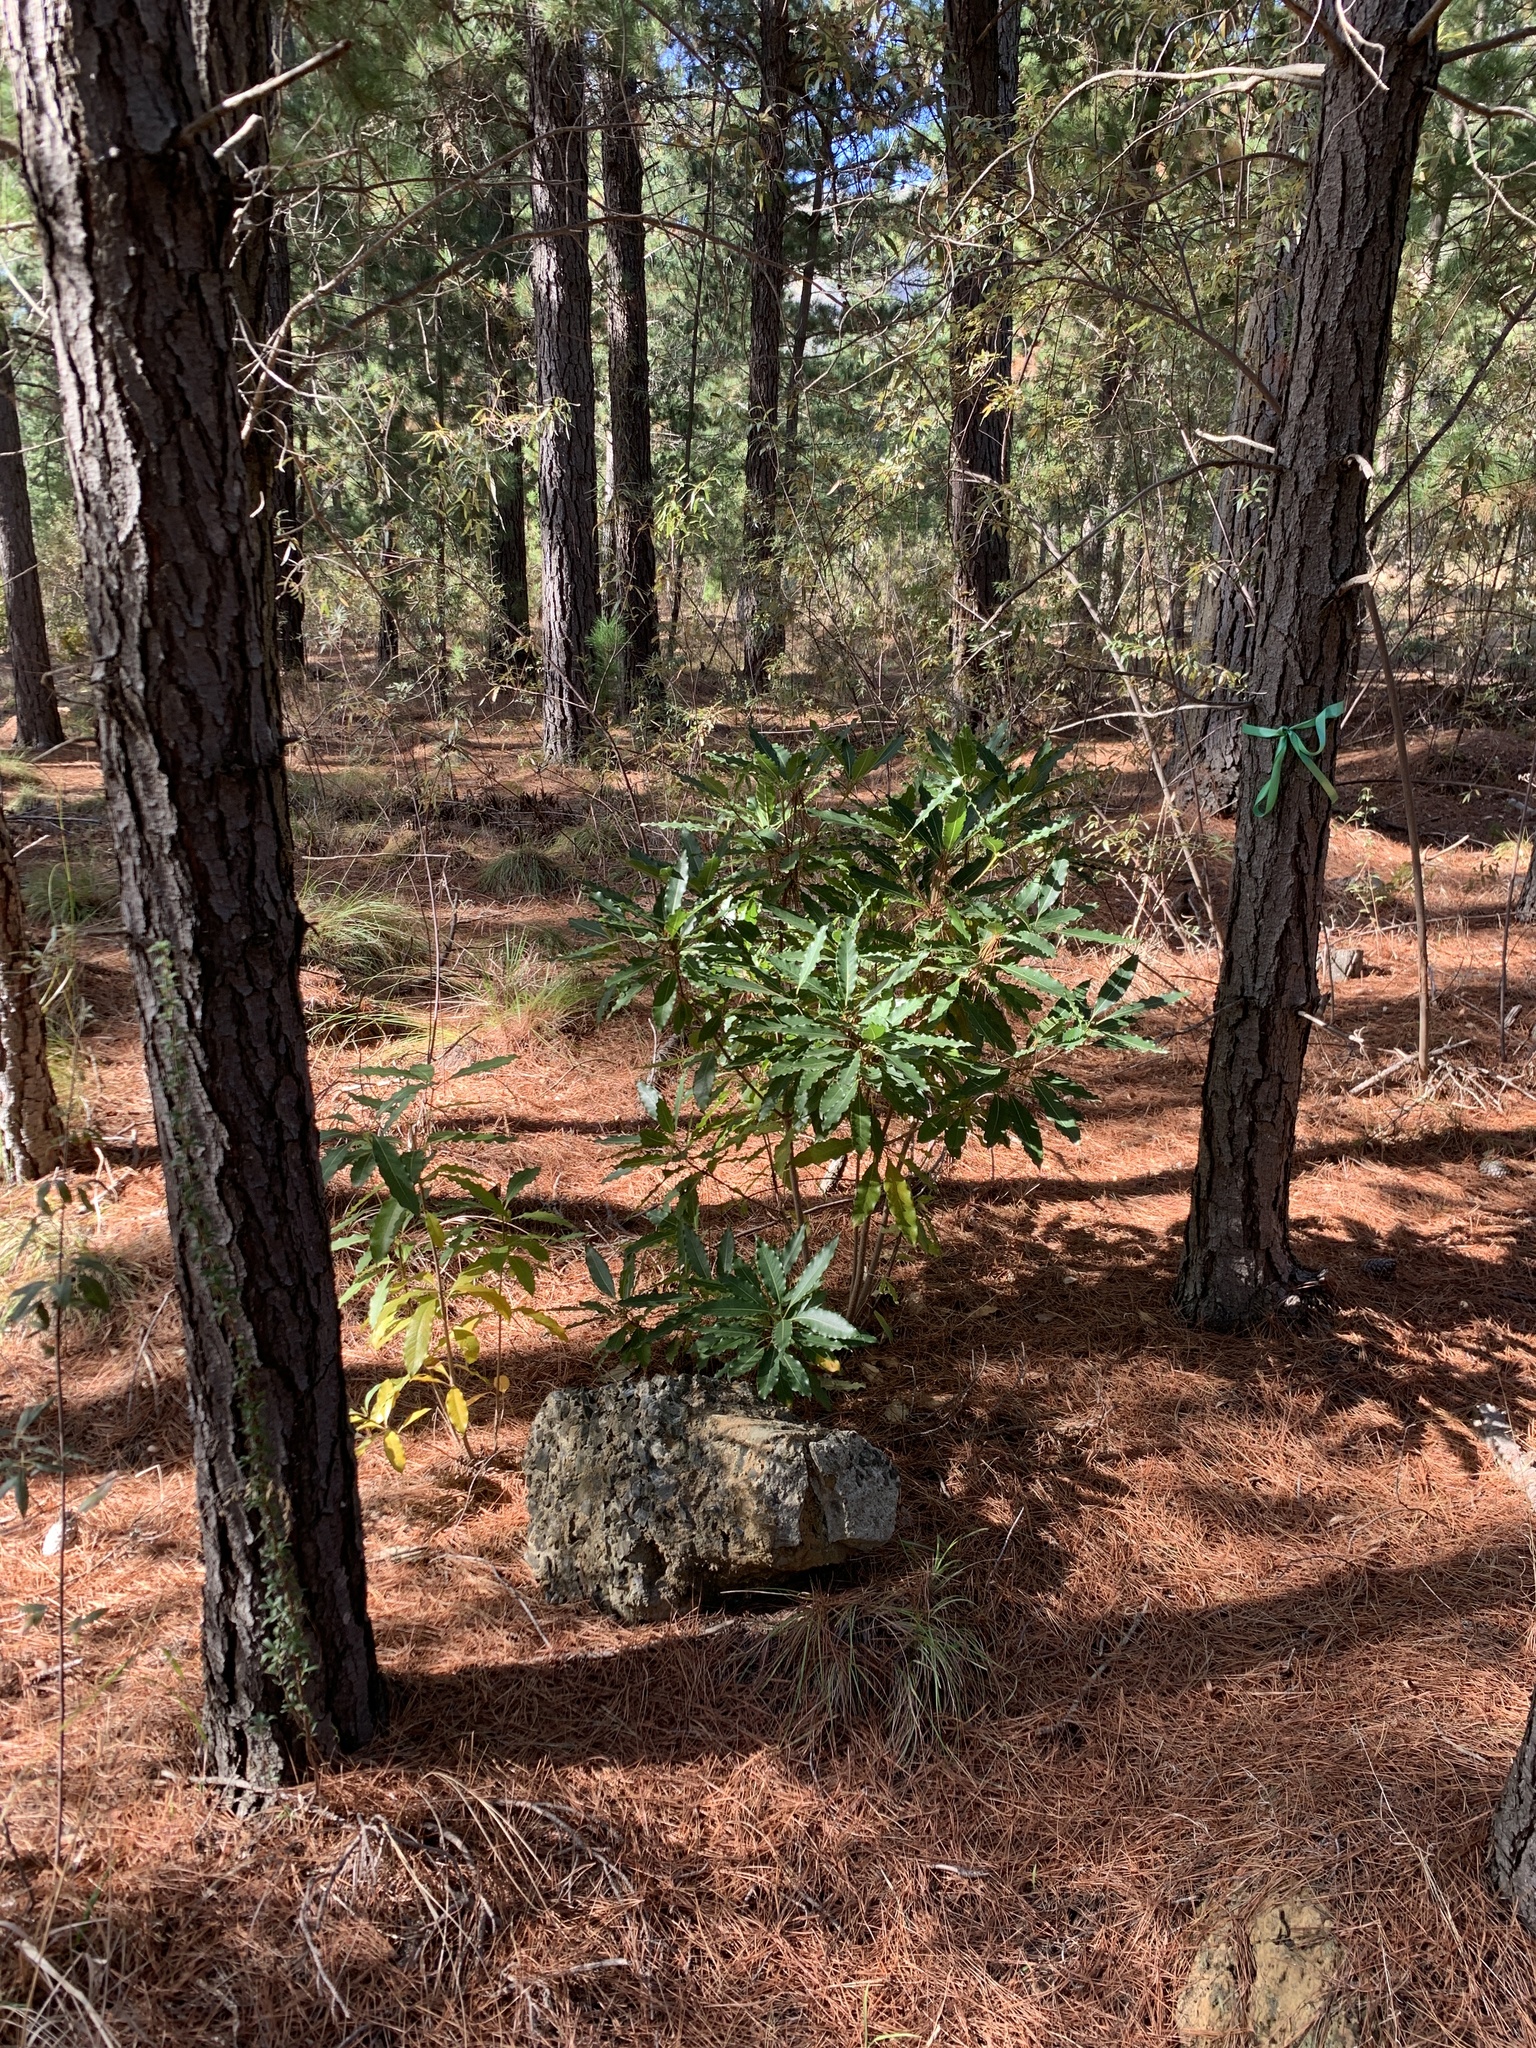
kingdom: Plantae
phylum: Tracheophyta
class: Magnoliopsida
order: Apiales
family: Pittosporaceae
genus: Pittosporum
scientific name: Pittosporum undulatum
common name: Australian cheesewood
